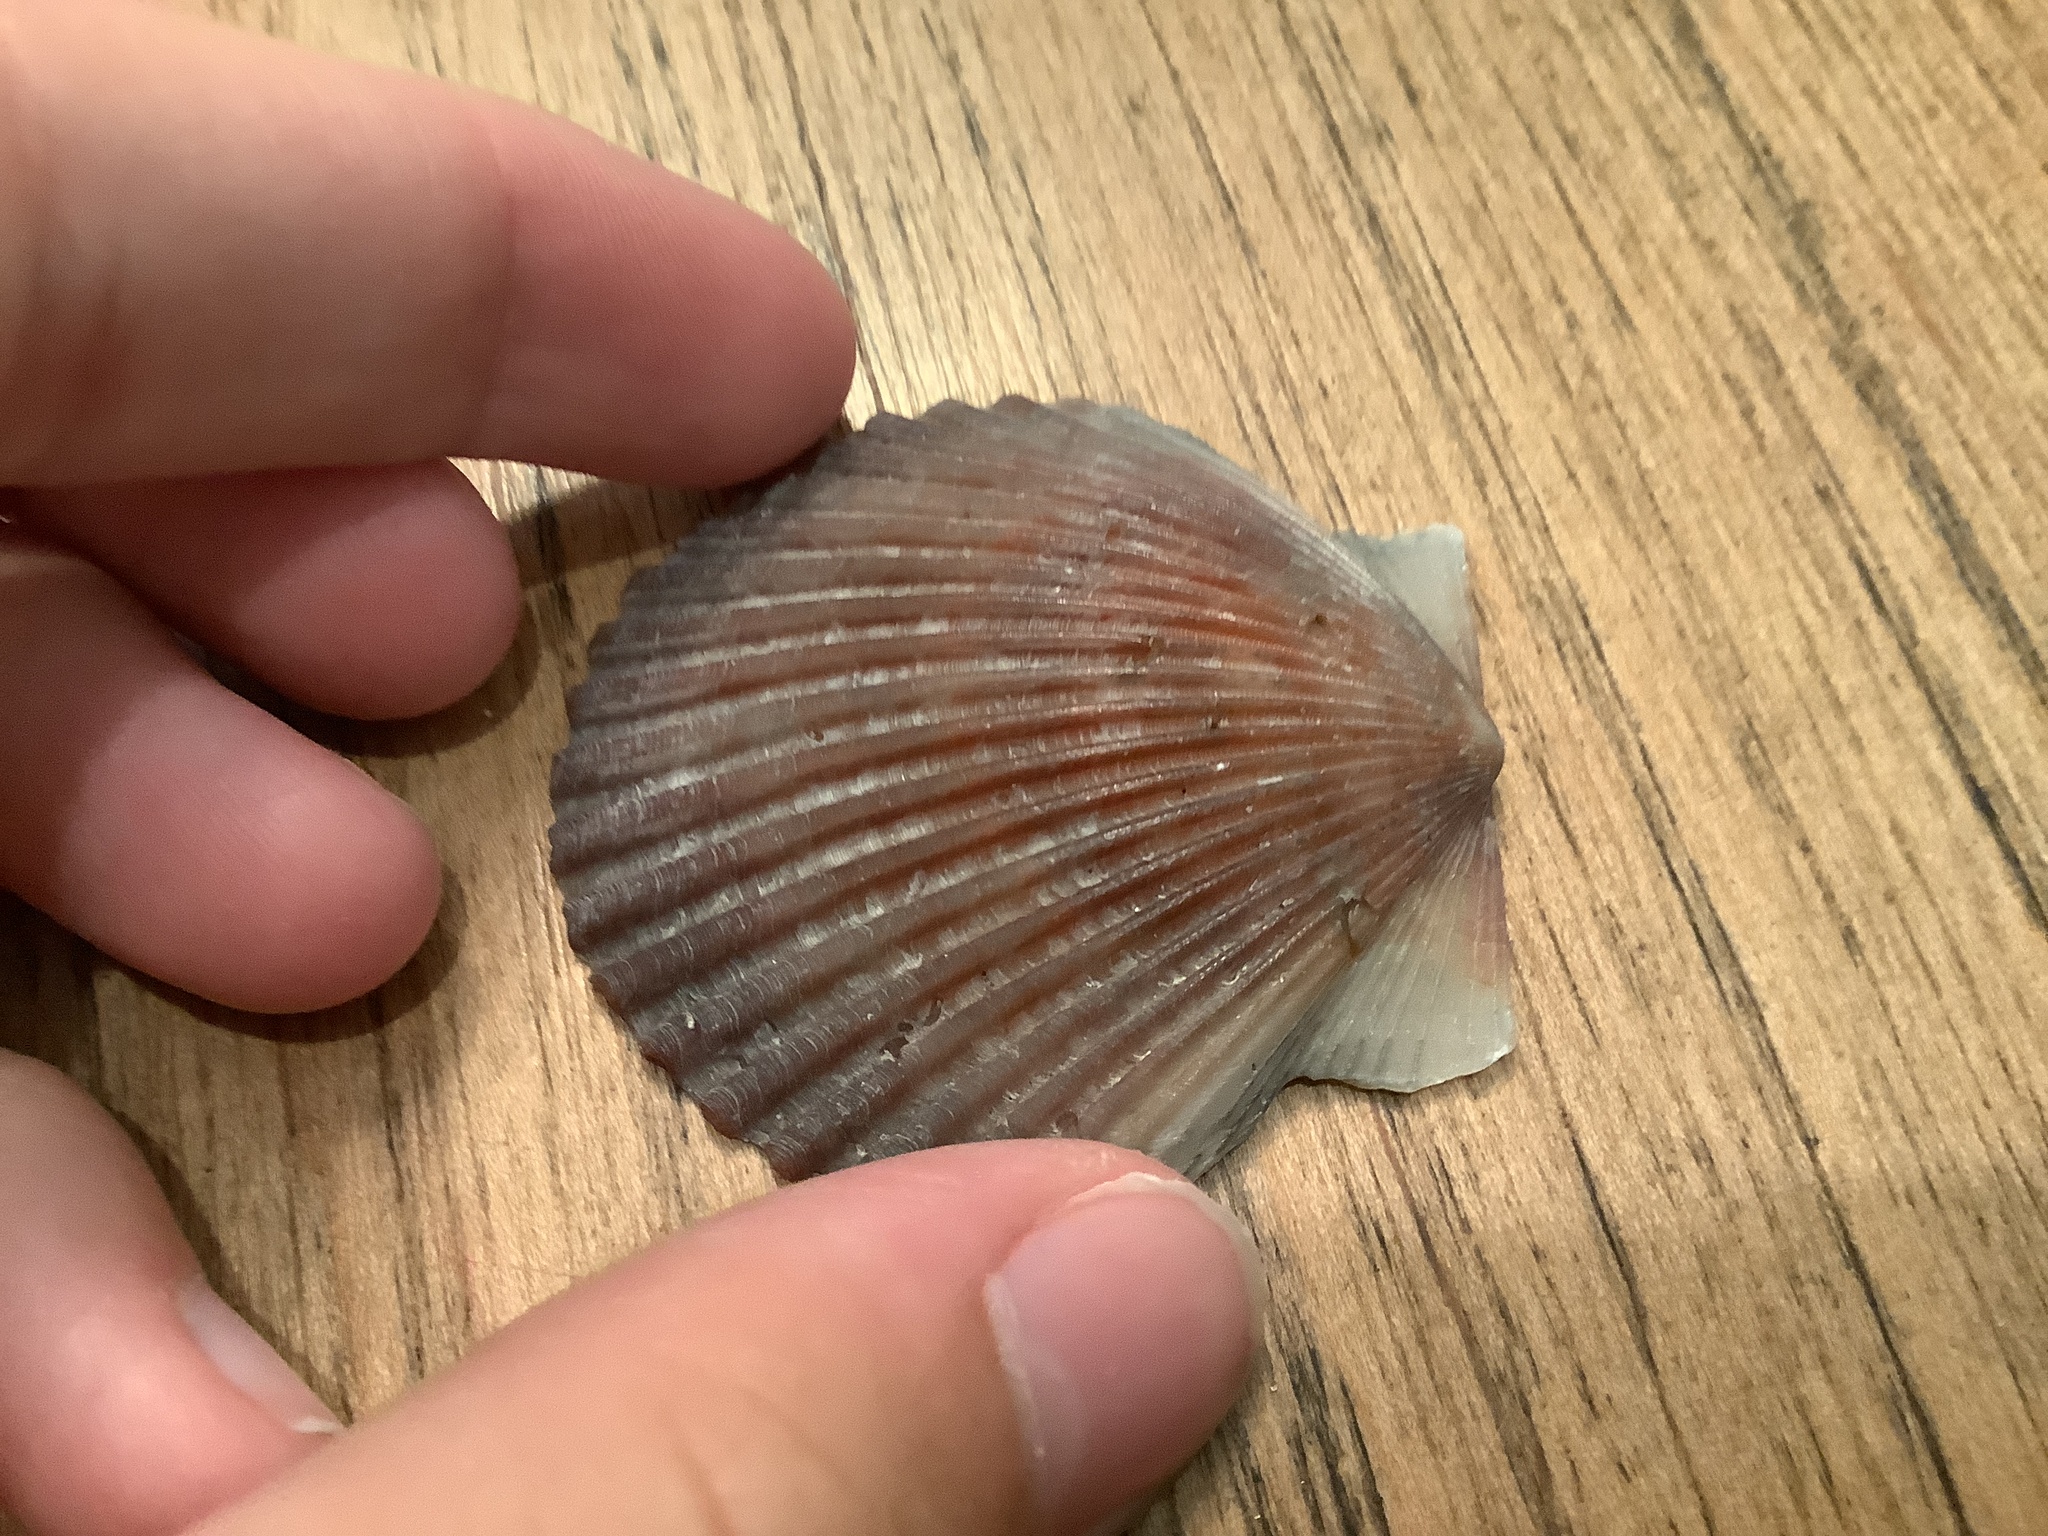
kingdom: Animalia
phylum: Mollusca
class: Bivalvia
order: Pectinida
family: Pectinidae
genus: Argopecten
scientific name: Argopecten irradians
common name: Atlantic bay scallop
